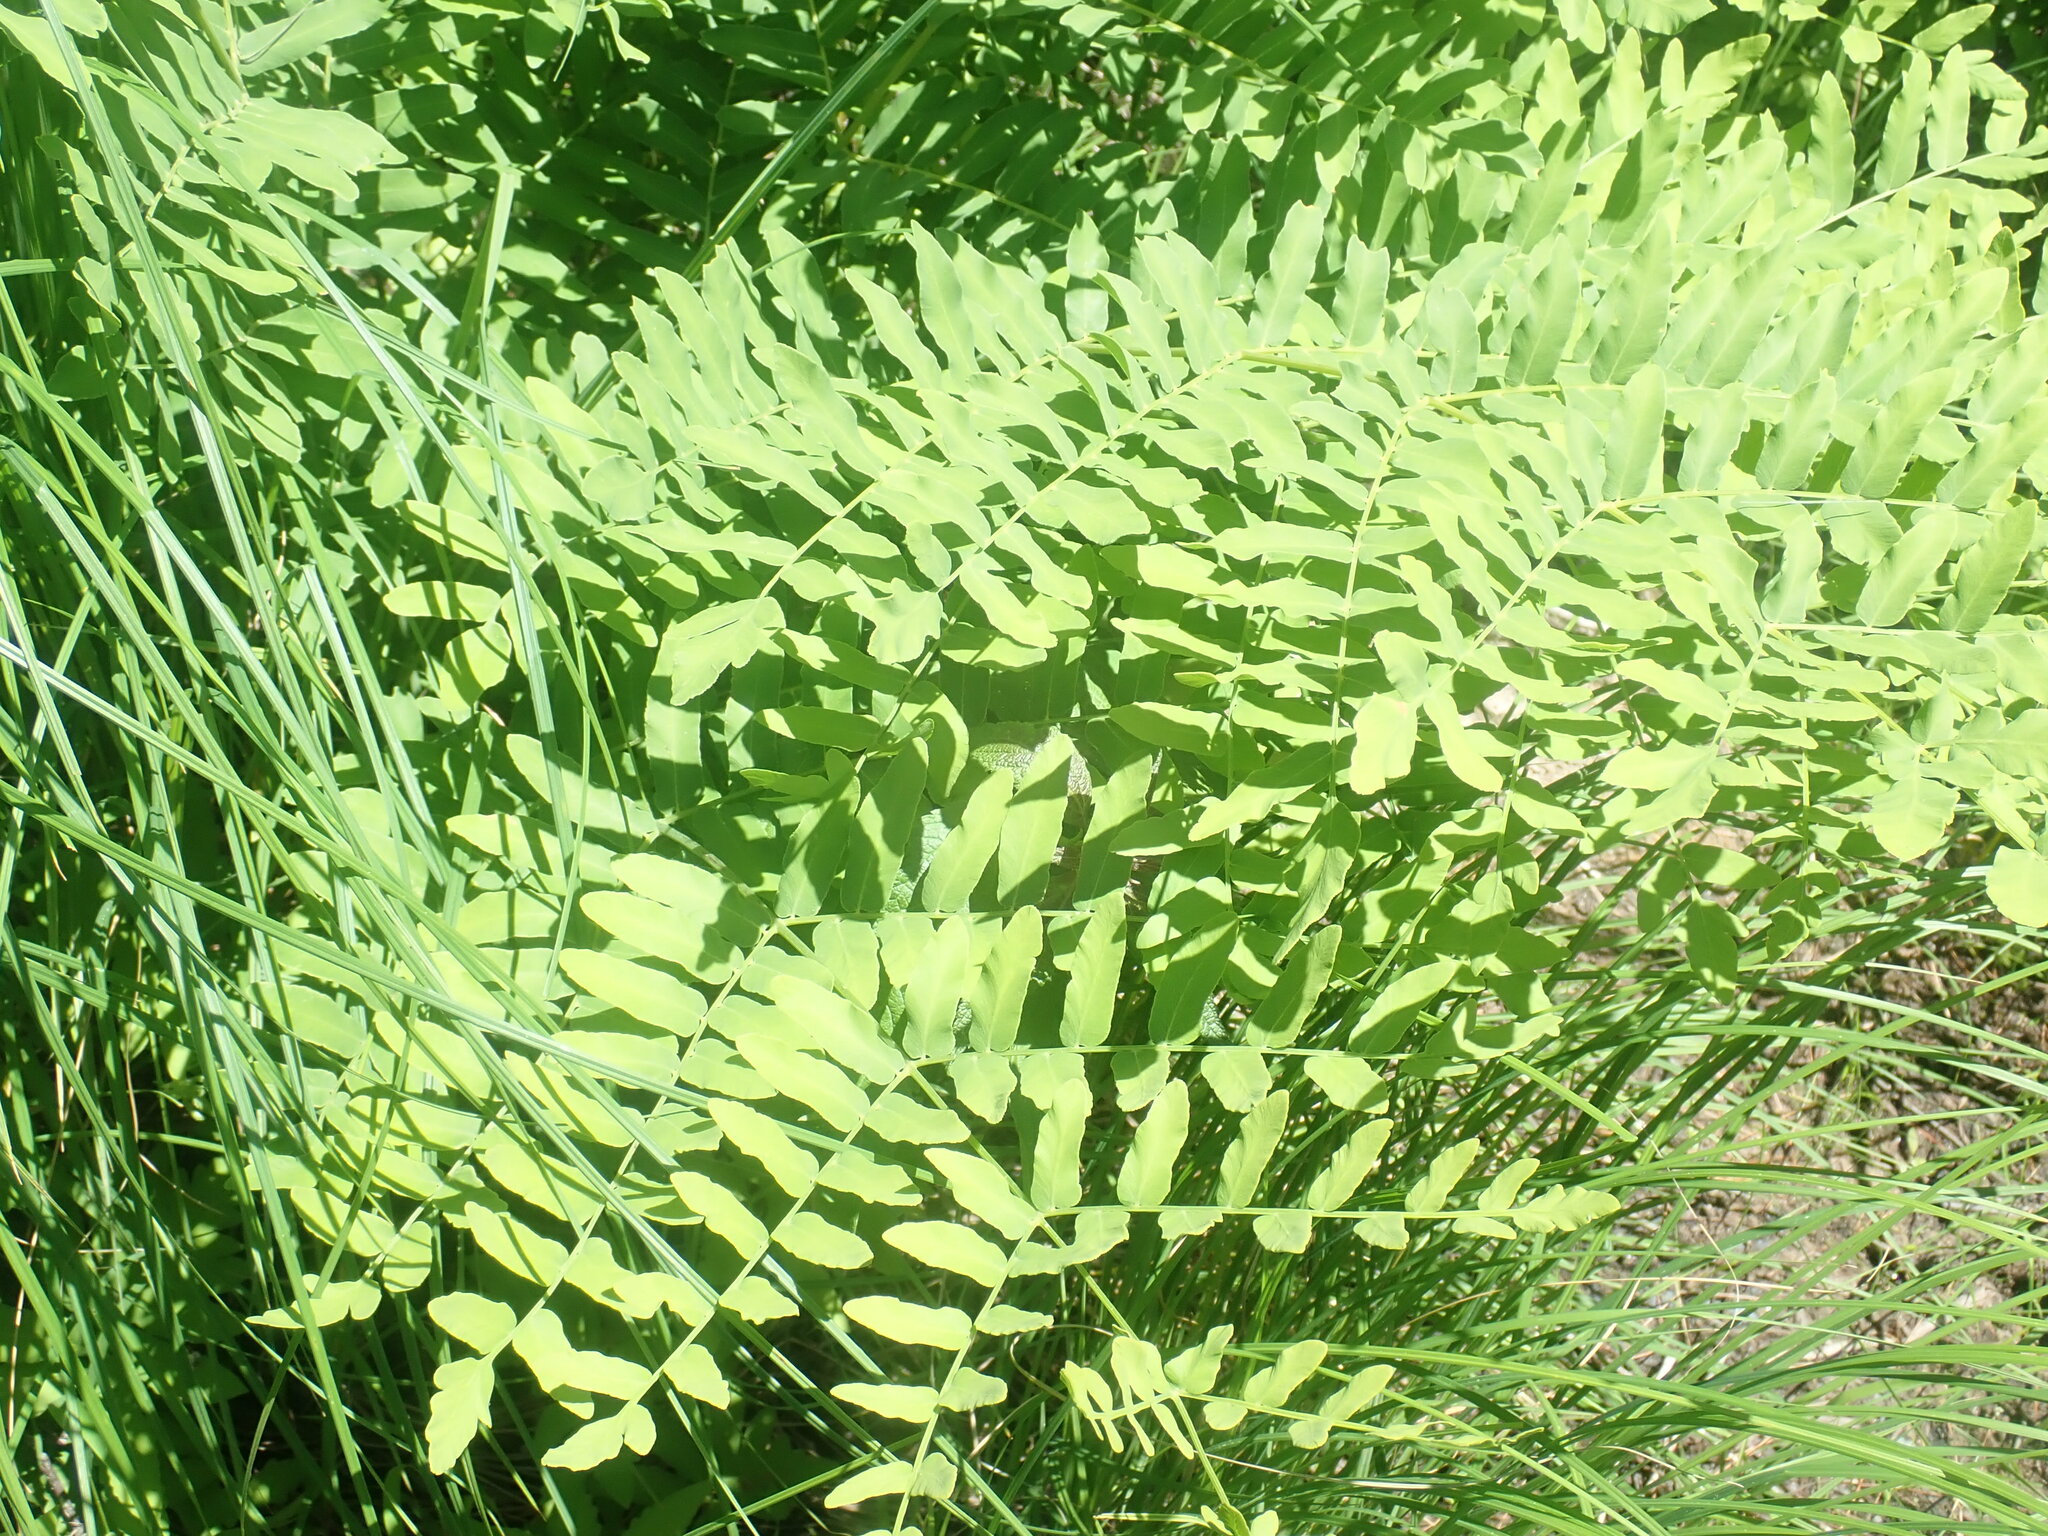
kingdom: Plantae
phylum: Tracheophyta
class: Polypodiopsida
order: Osmundales
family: Osmundaceae
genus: Osmunda
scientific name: Osmunda spectabilis
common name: American royal fern
